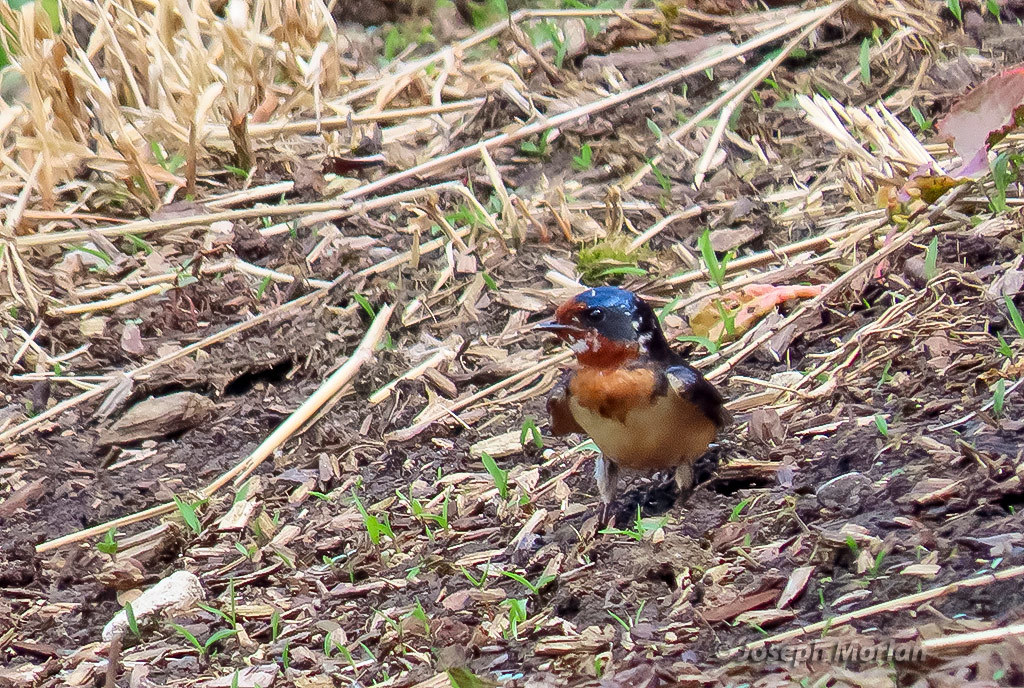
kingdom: Animalia
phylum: Chordata
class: Aves
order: Passeriformes
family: Hirundinidae
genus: Hirundo
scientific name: Hirundo rustica
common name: Barn swallow
